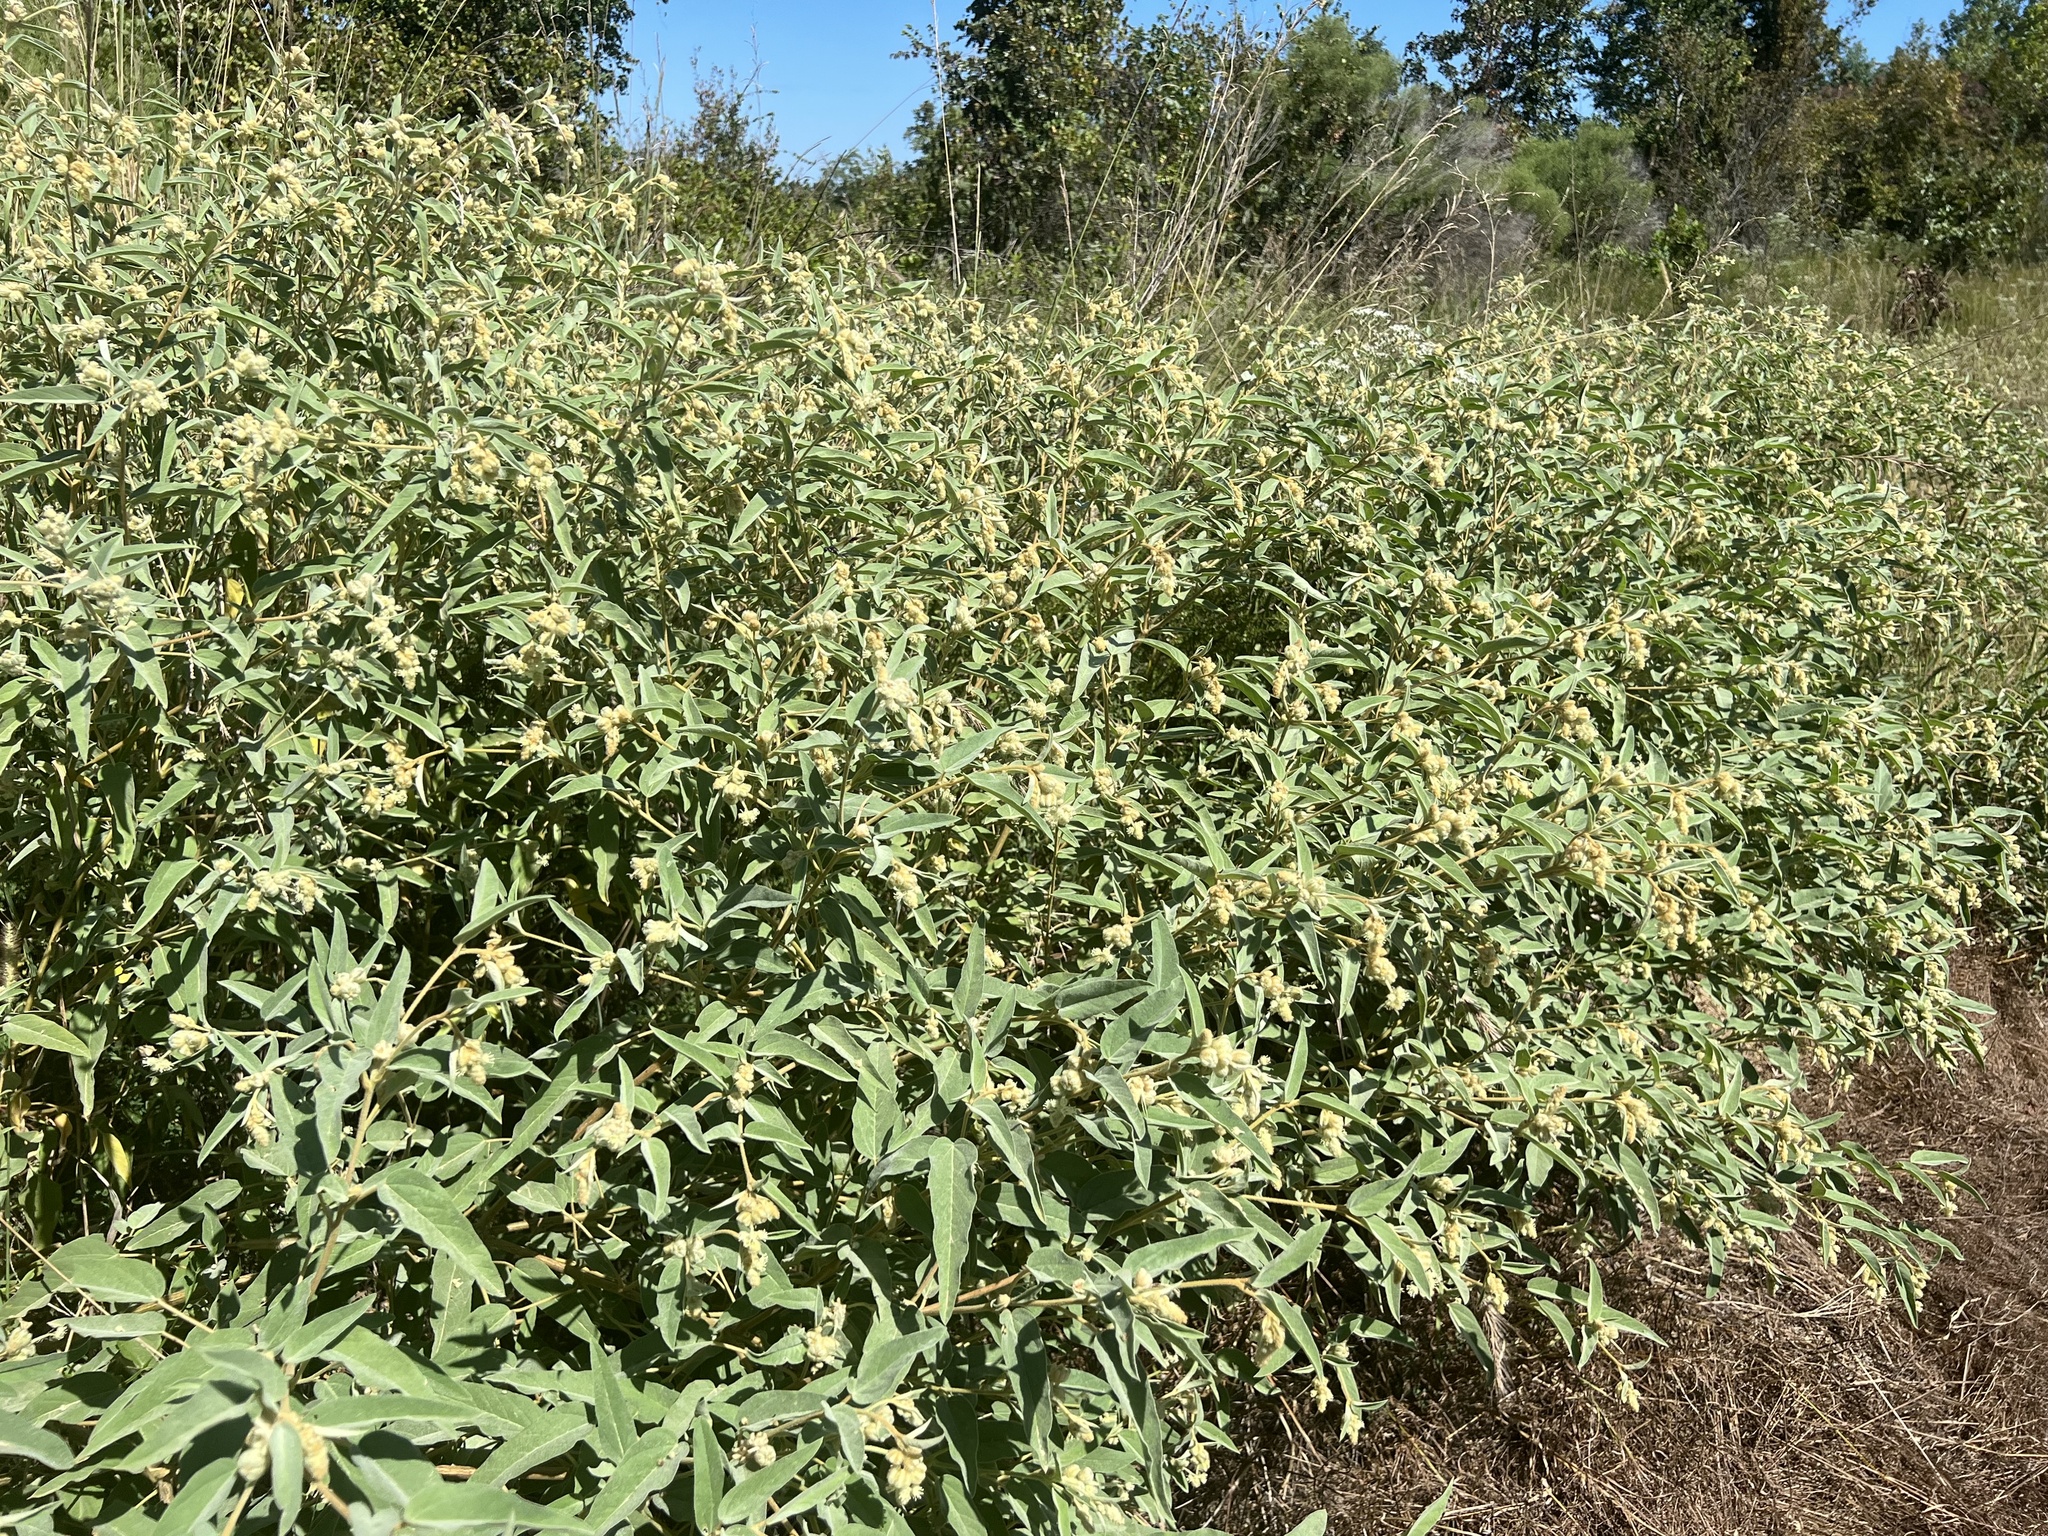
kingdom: Plantae
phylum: Tracheophyta
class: Magnoliopsida
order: Malpighiales
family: Euphorbiaceae
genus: Croton
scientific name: Croton lindheimeri
